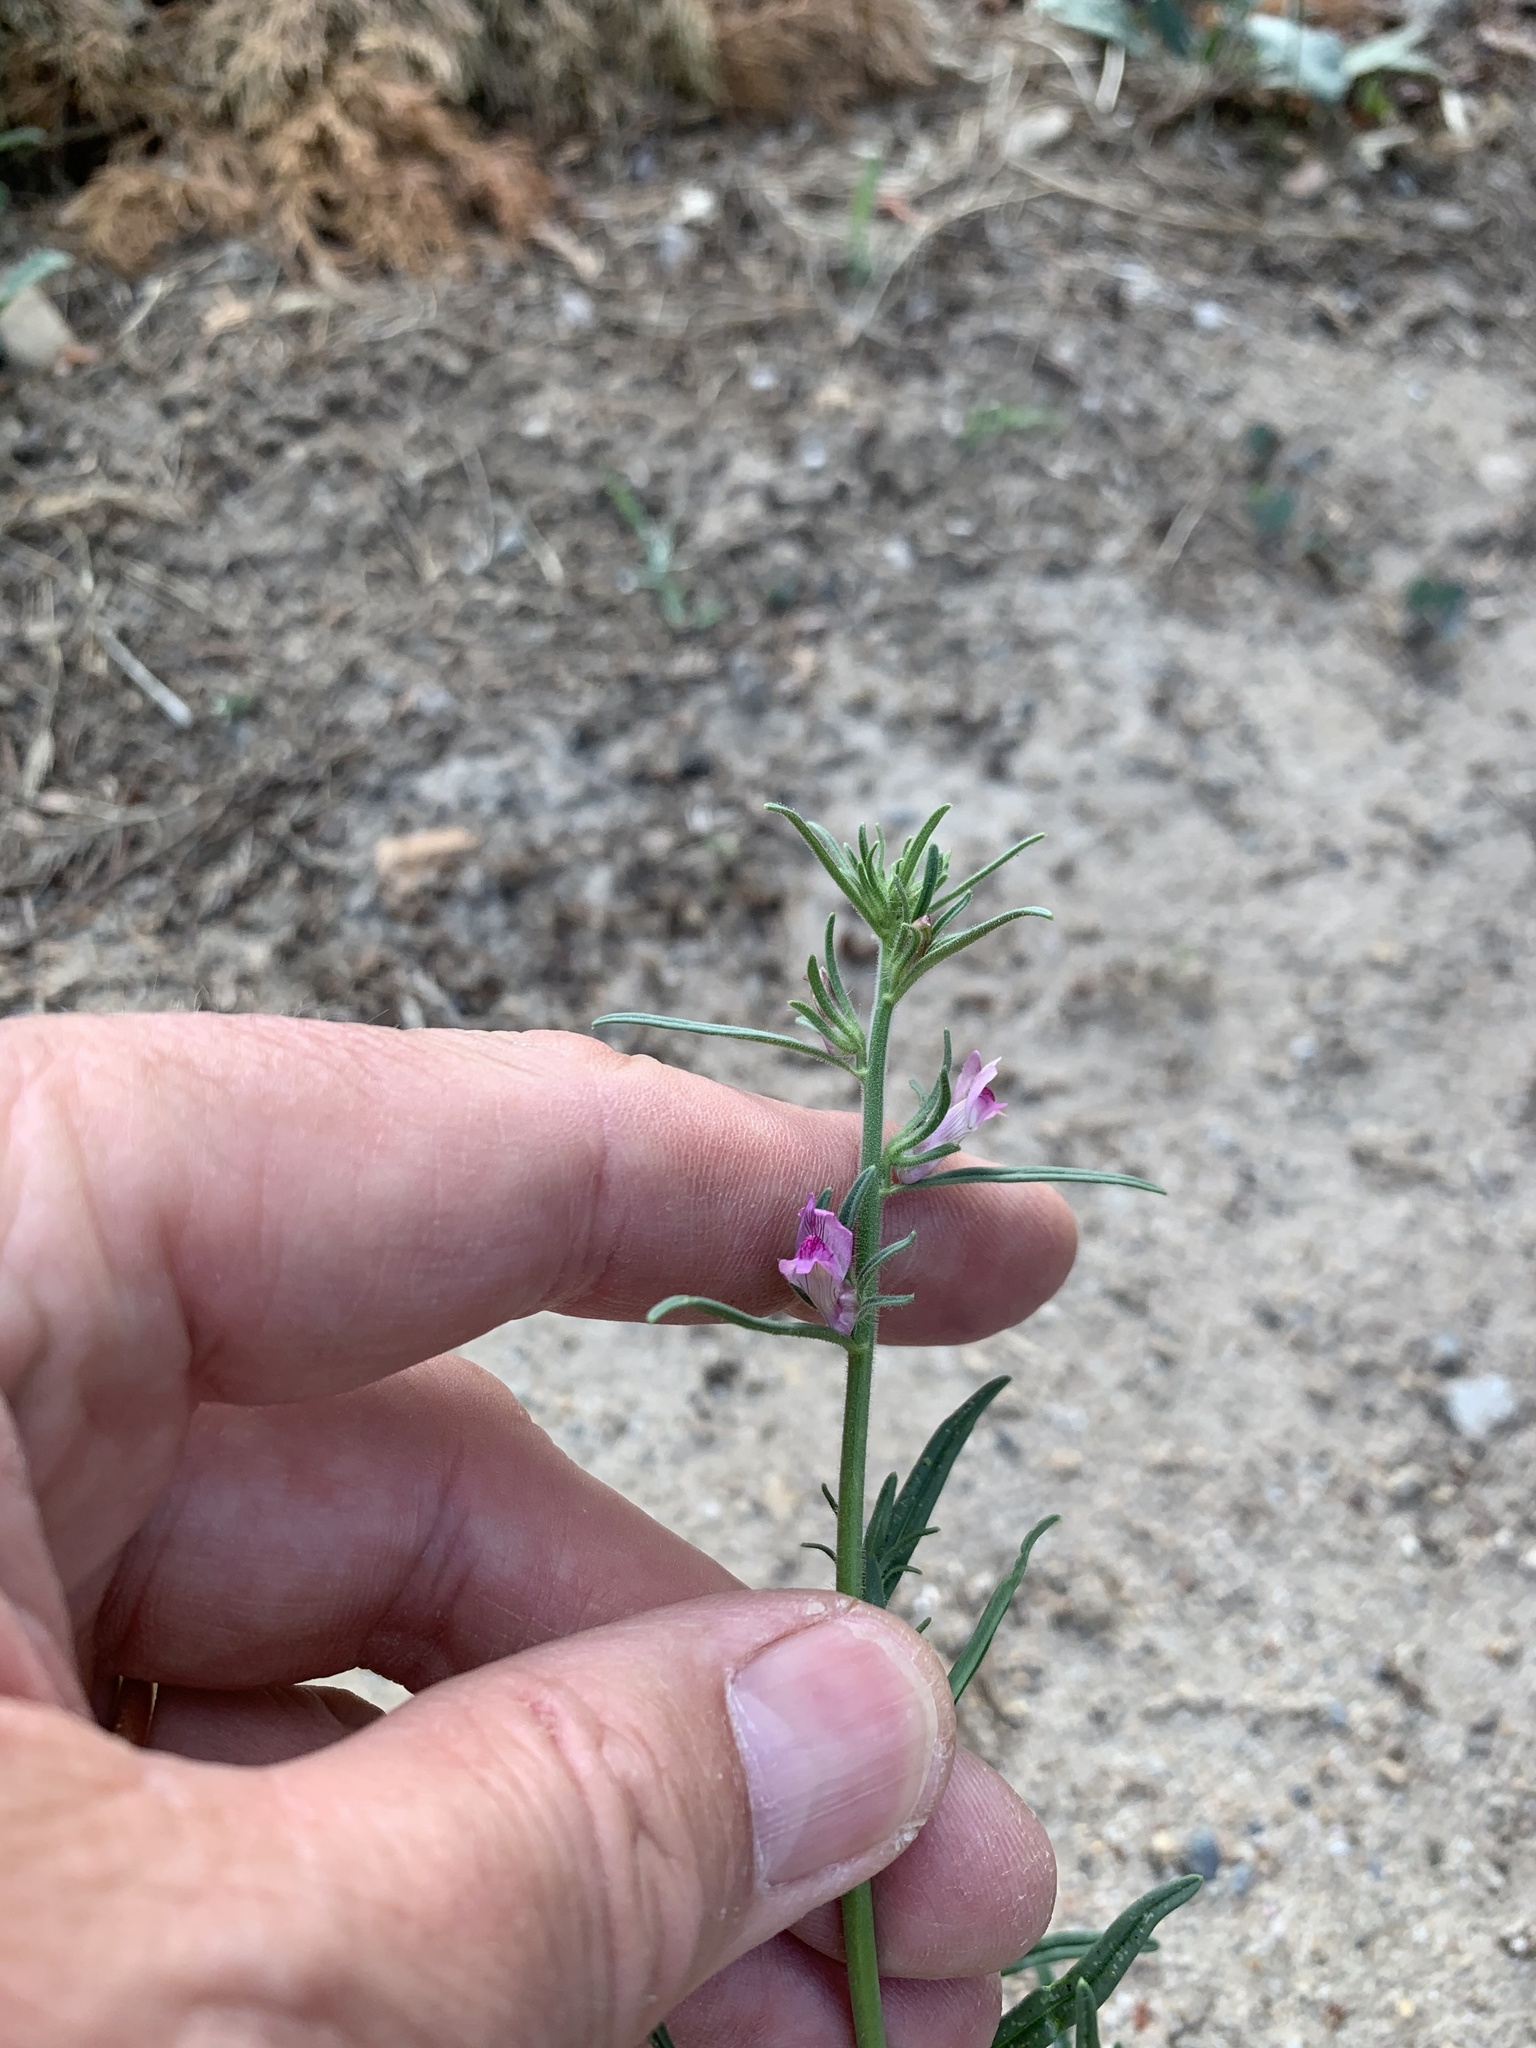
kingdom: Plantae
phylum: Tracheophyta
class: Magnoliopsida
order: Lamiales
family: Plantaginaceae
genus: Misopates
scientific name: Misopates orontium
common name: Weasel's-snout
